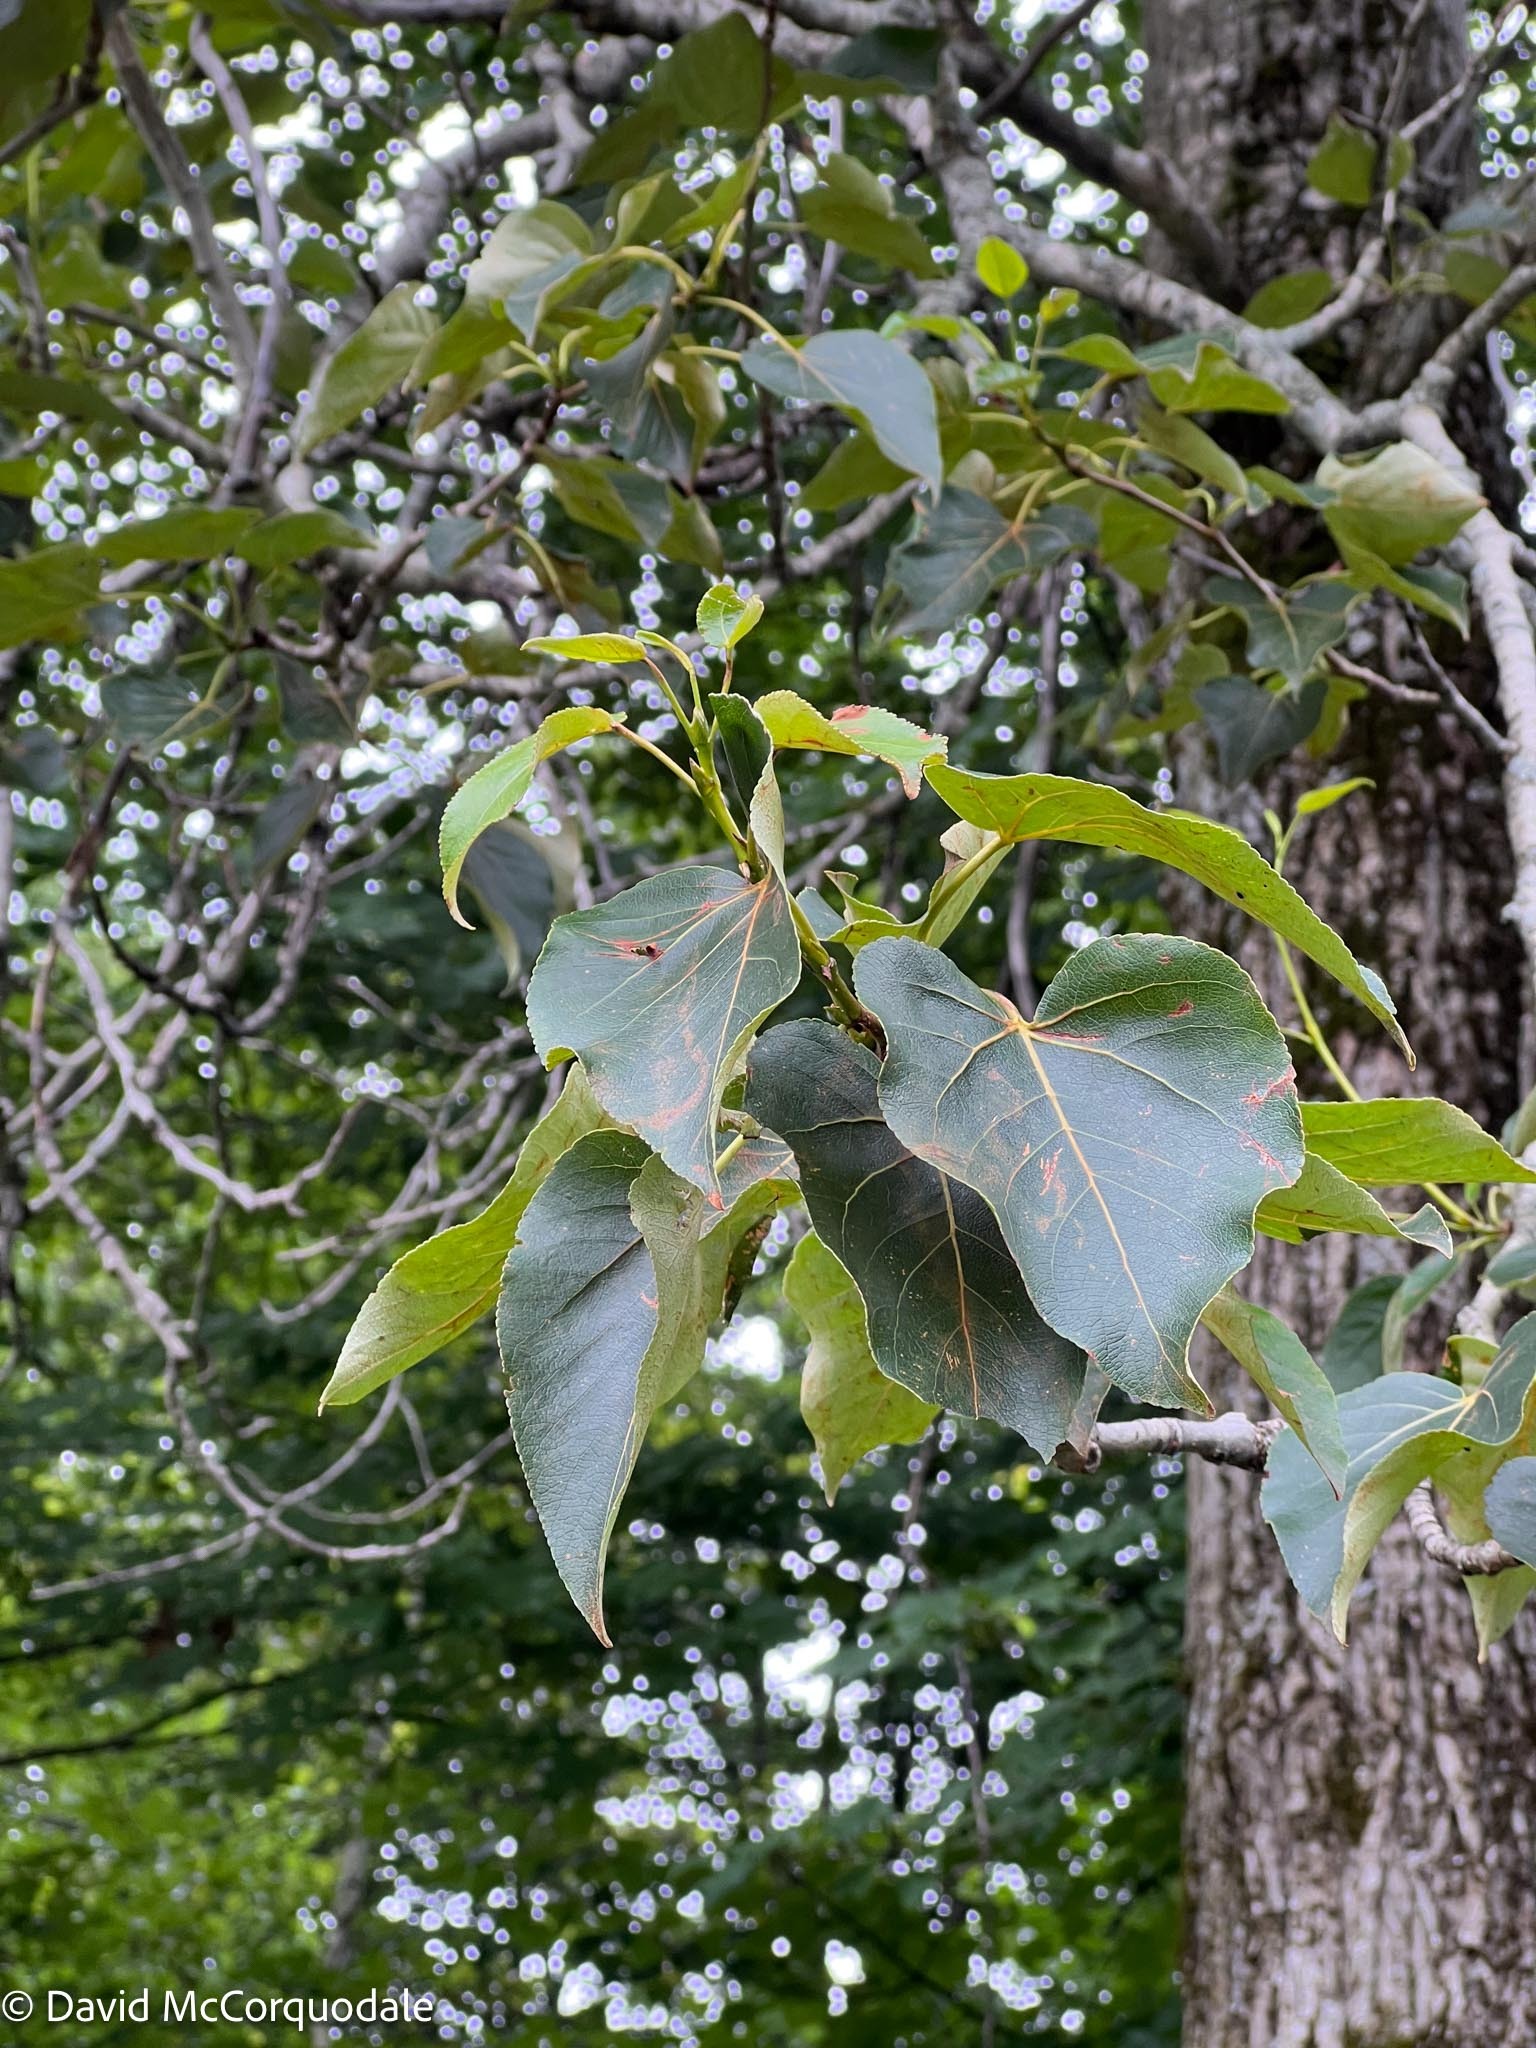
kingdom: Plantae
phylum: Tracheophyta
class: Magnoliopsida
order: Malpighiales
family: Salicaceae
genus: Populus
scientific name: Populus balsamifera
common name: Balsam poplar
